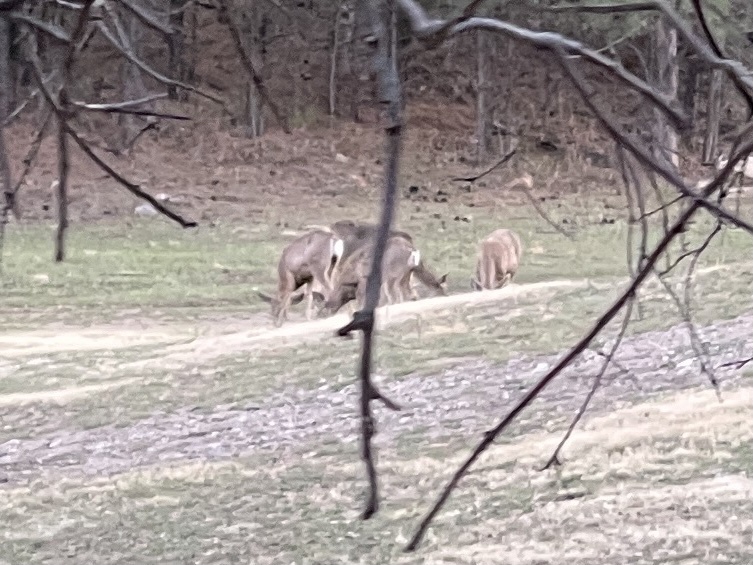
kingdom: Animalia
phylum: Chordata
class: Mammalia
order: Artiodactyla
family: Cervidae
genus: Odocoileus
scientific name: Odocoileus hemionus
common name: Mule deer
